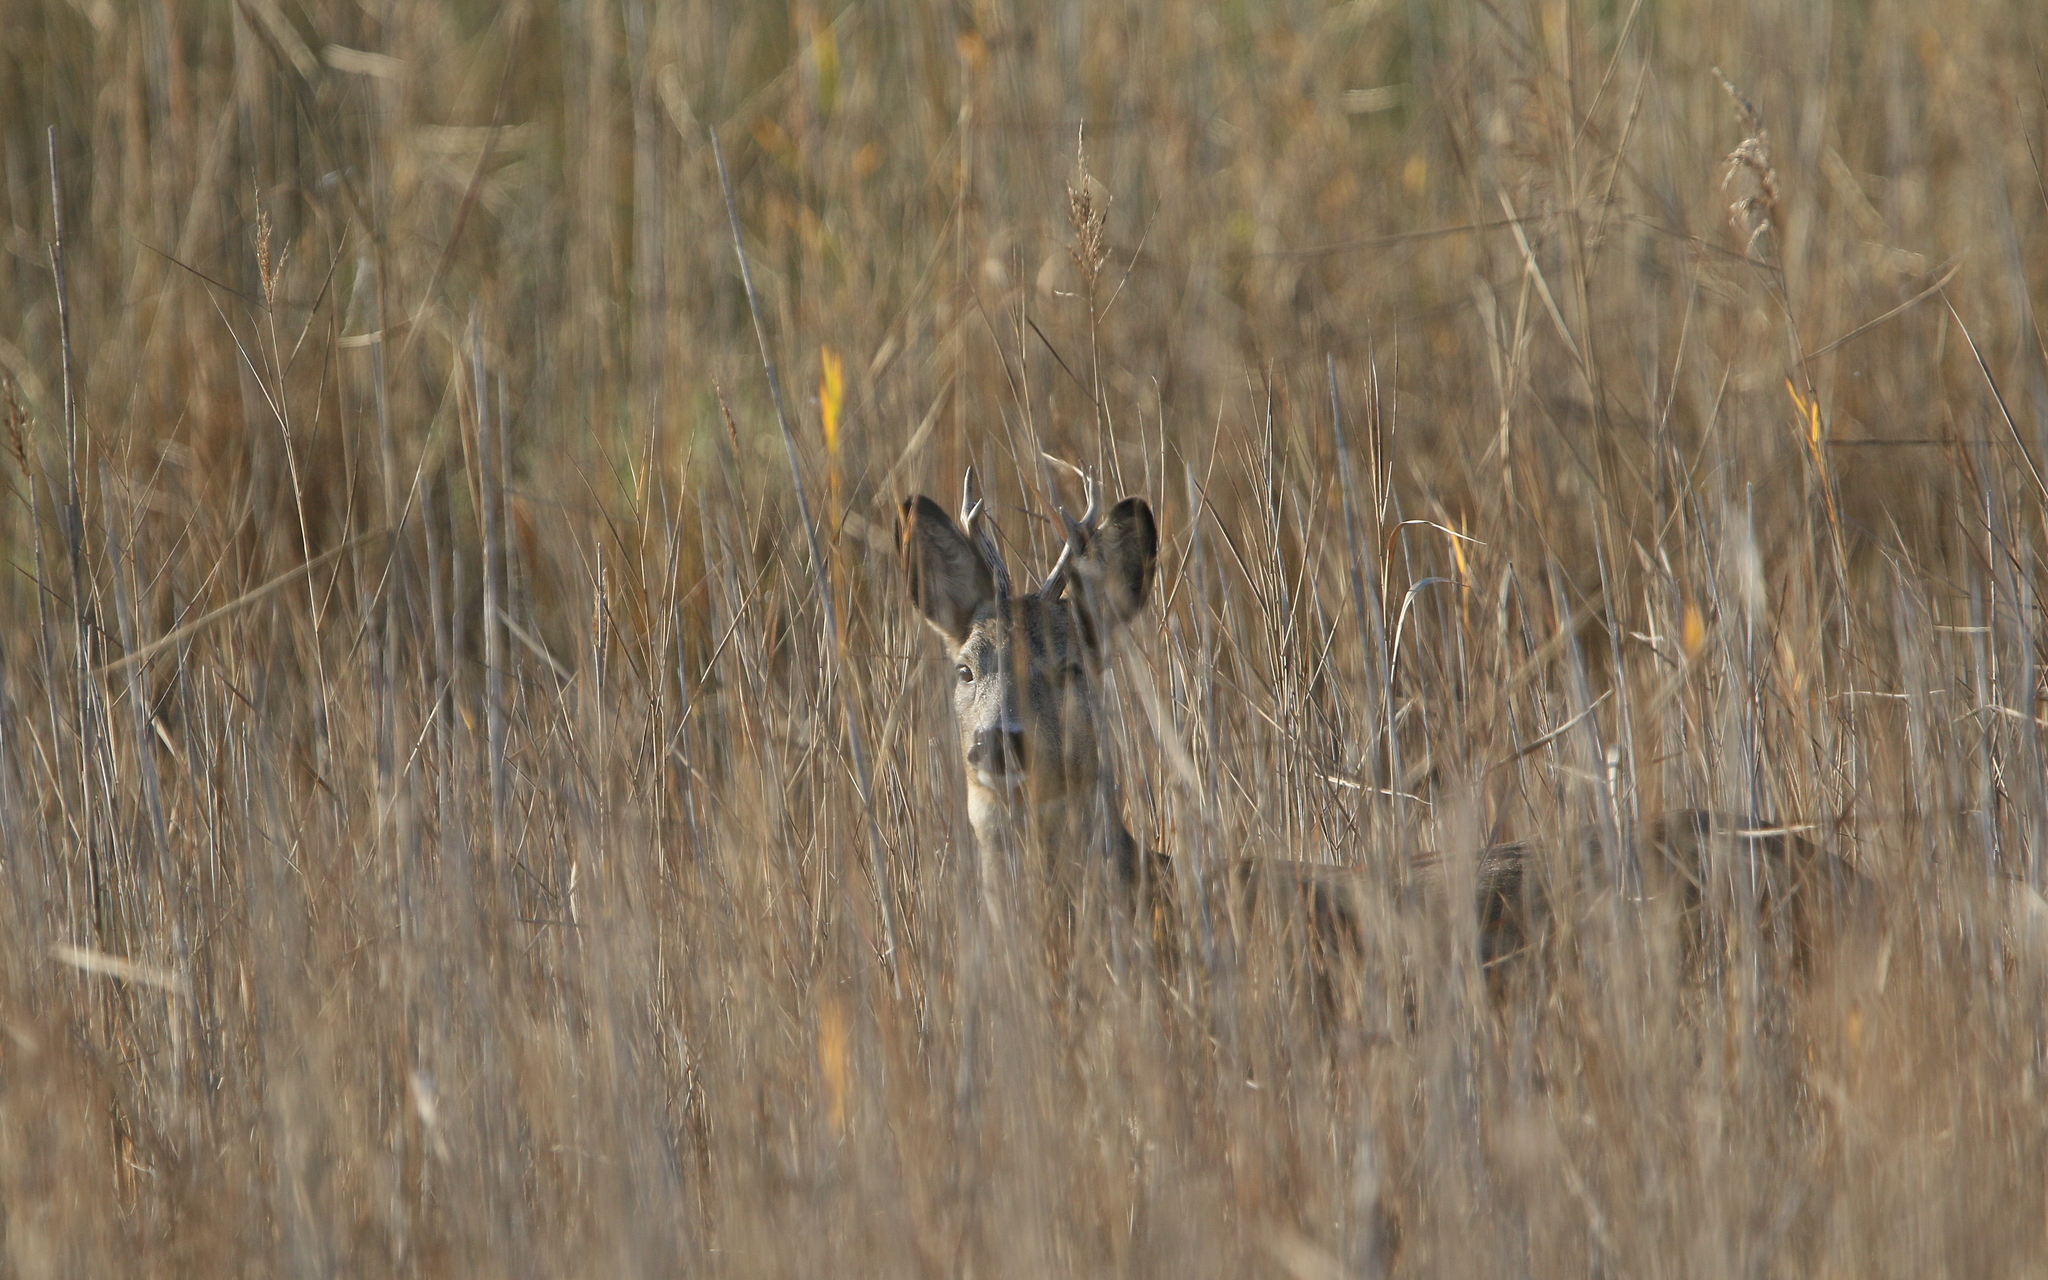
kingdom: Animalia
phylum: Chordata
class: Mammalia
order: Artiodactyla
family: Cervidae
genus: Capreolus
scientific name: Capreolus capreolus
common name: Western roe deer
